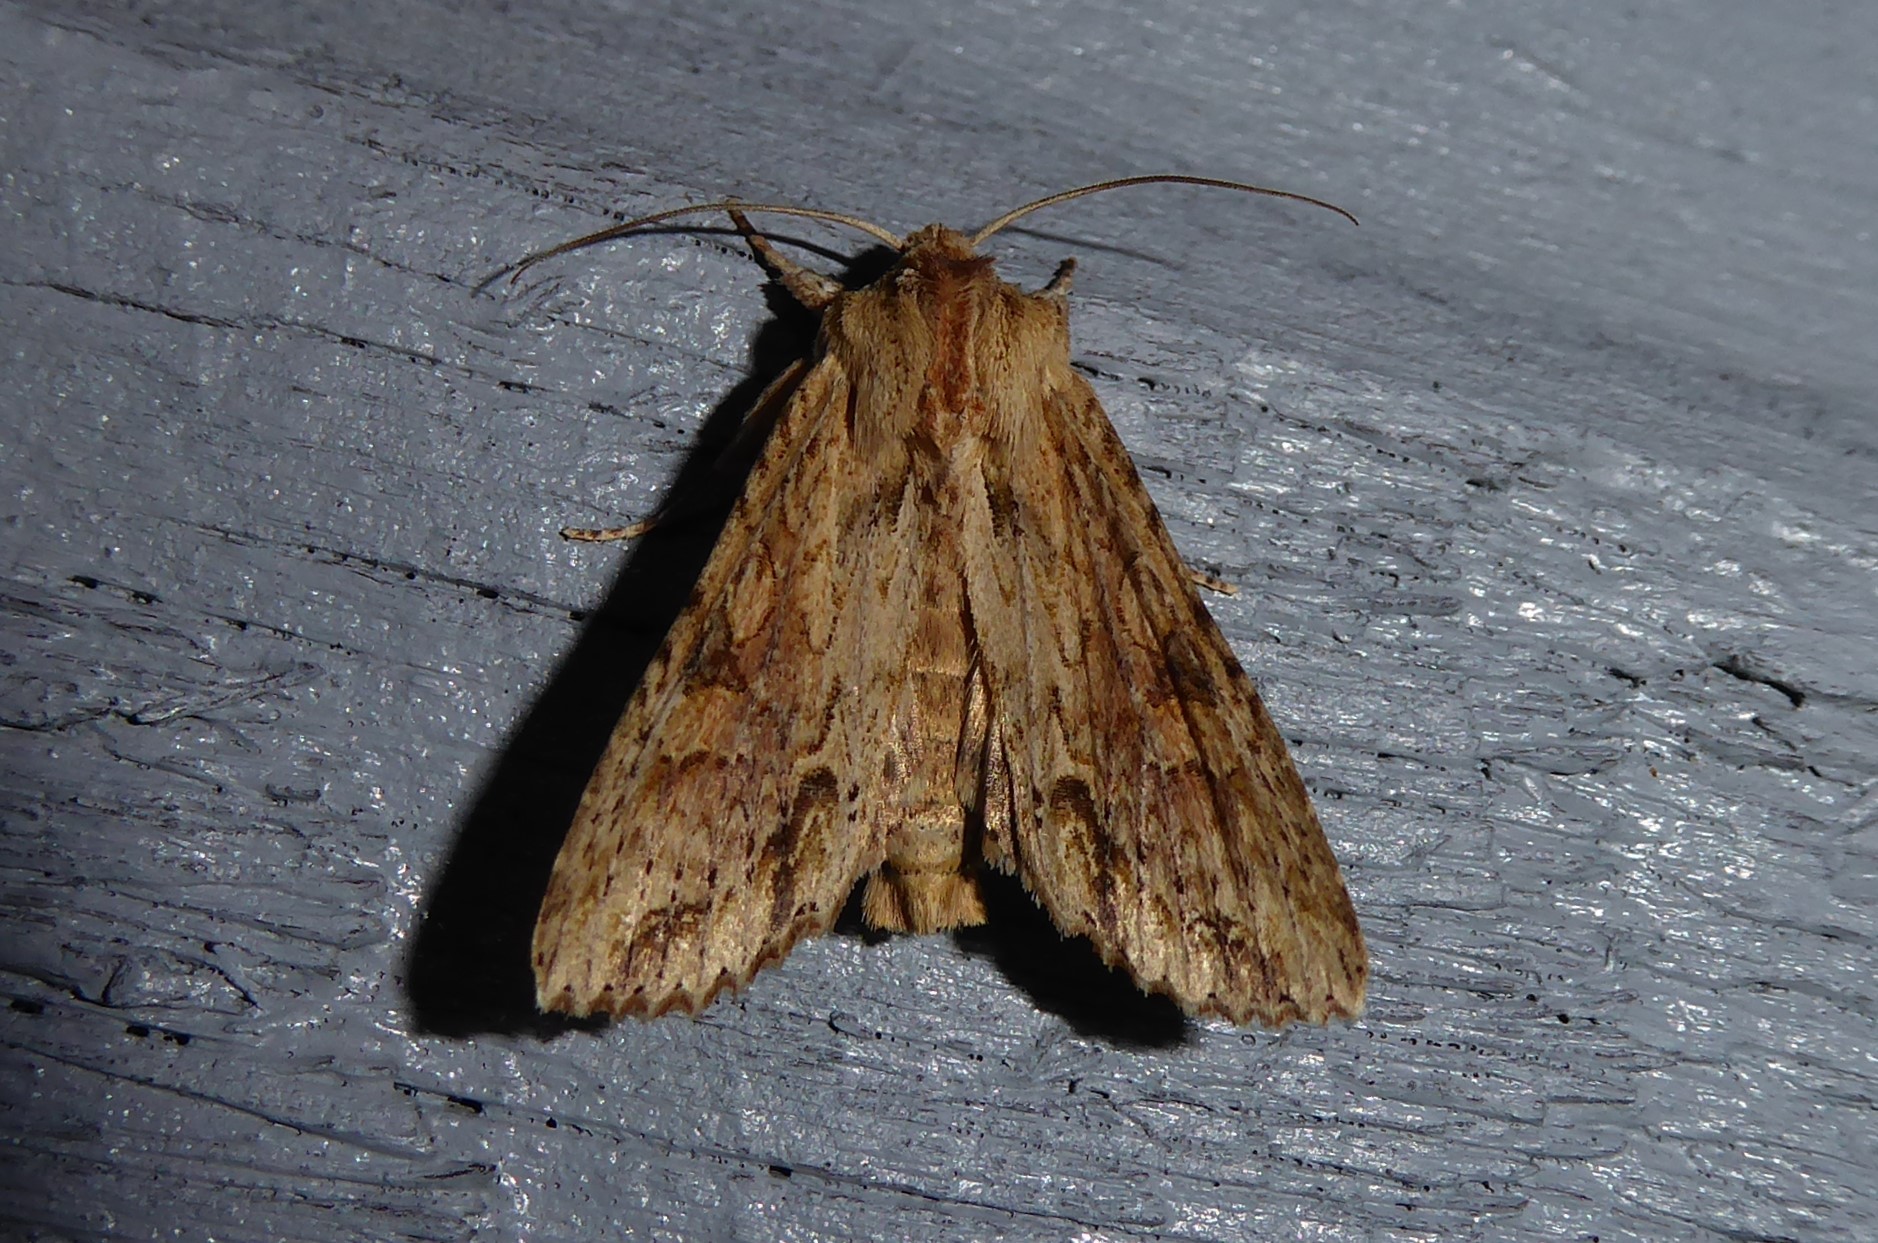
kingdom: Animalia
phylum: Arthropoda
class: Insecta
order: Lepidoptera
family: Noctuidae
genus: Ichneutica
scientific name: Ichneutica mollis
